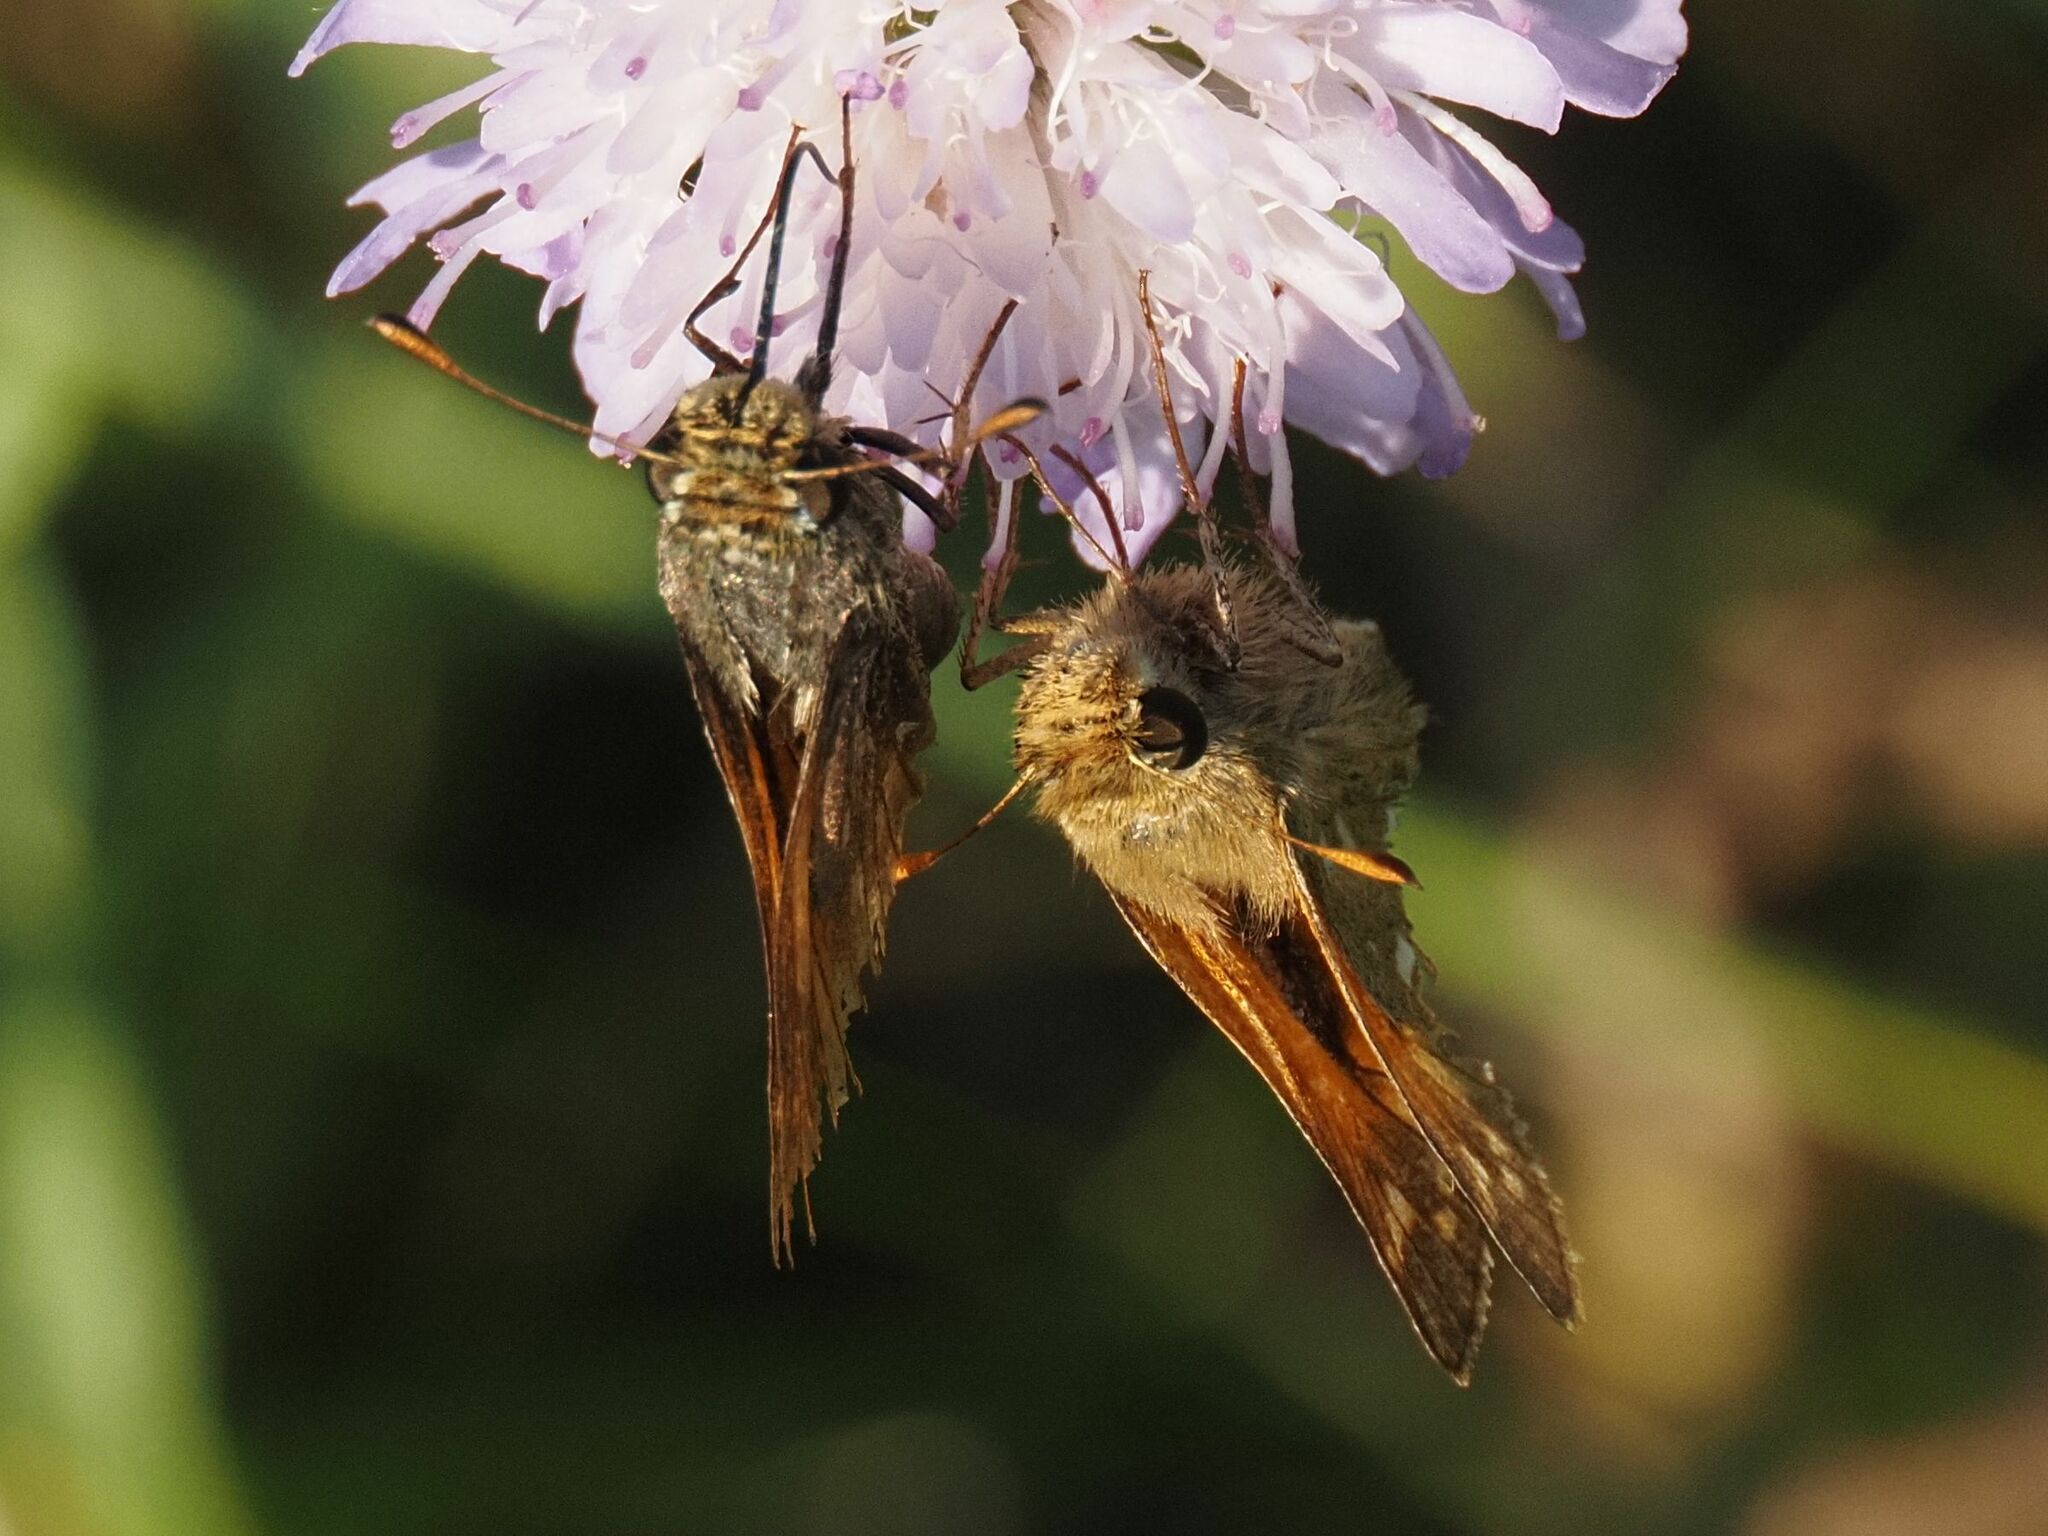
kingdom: Animalia
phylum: Arthropoda
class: Insecta
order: Lepidoptera
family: Hesperiidae
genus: Hesperia
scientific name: Hesperia comma
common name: Common branded skipper
